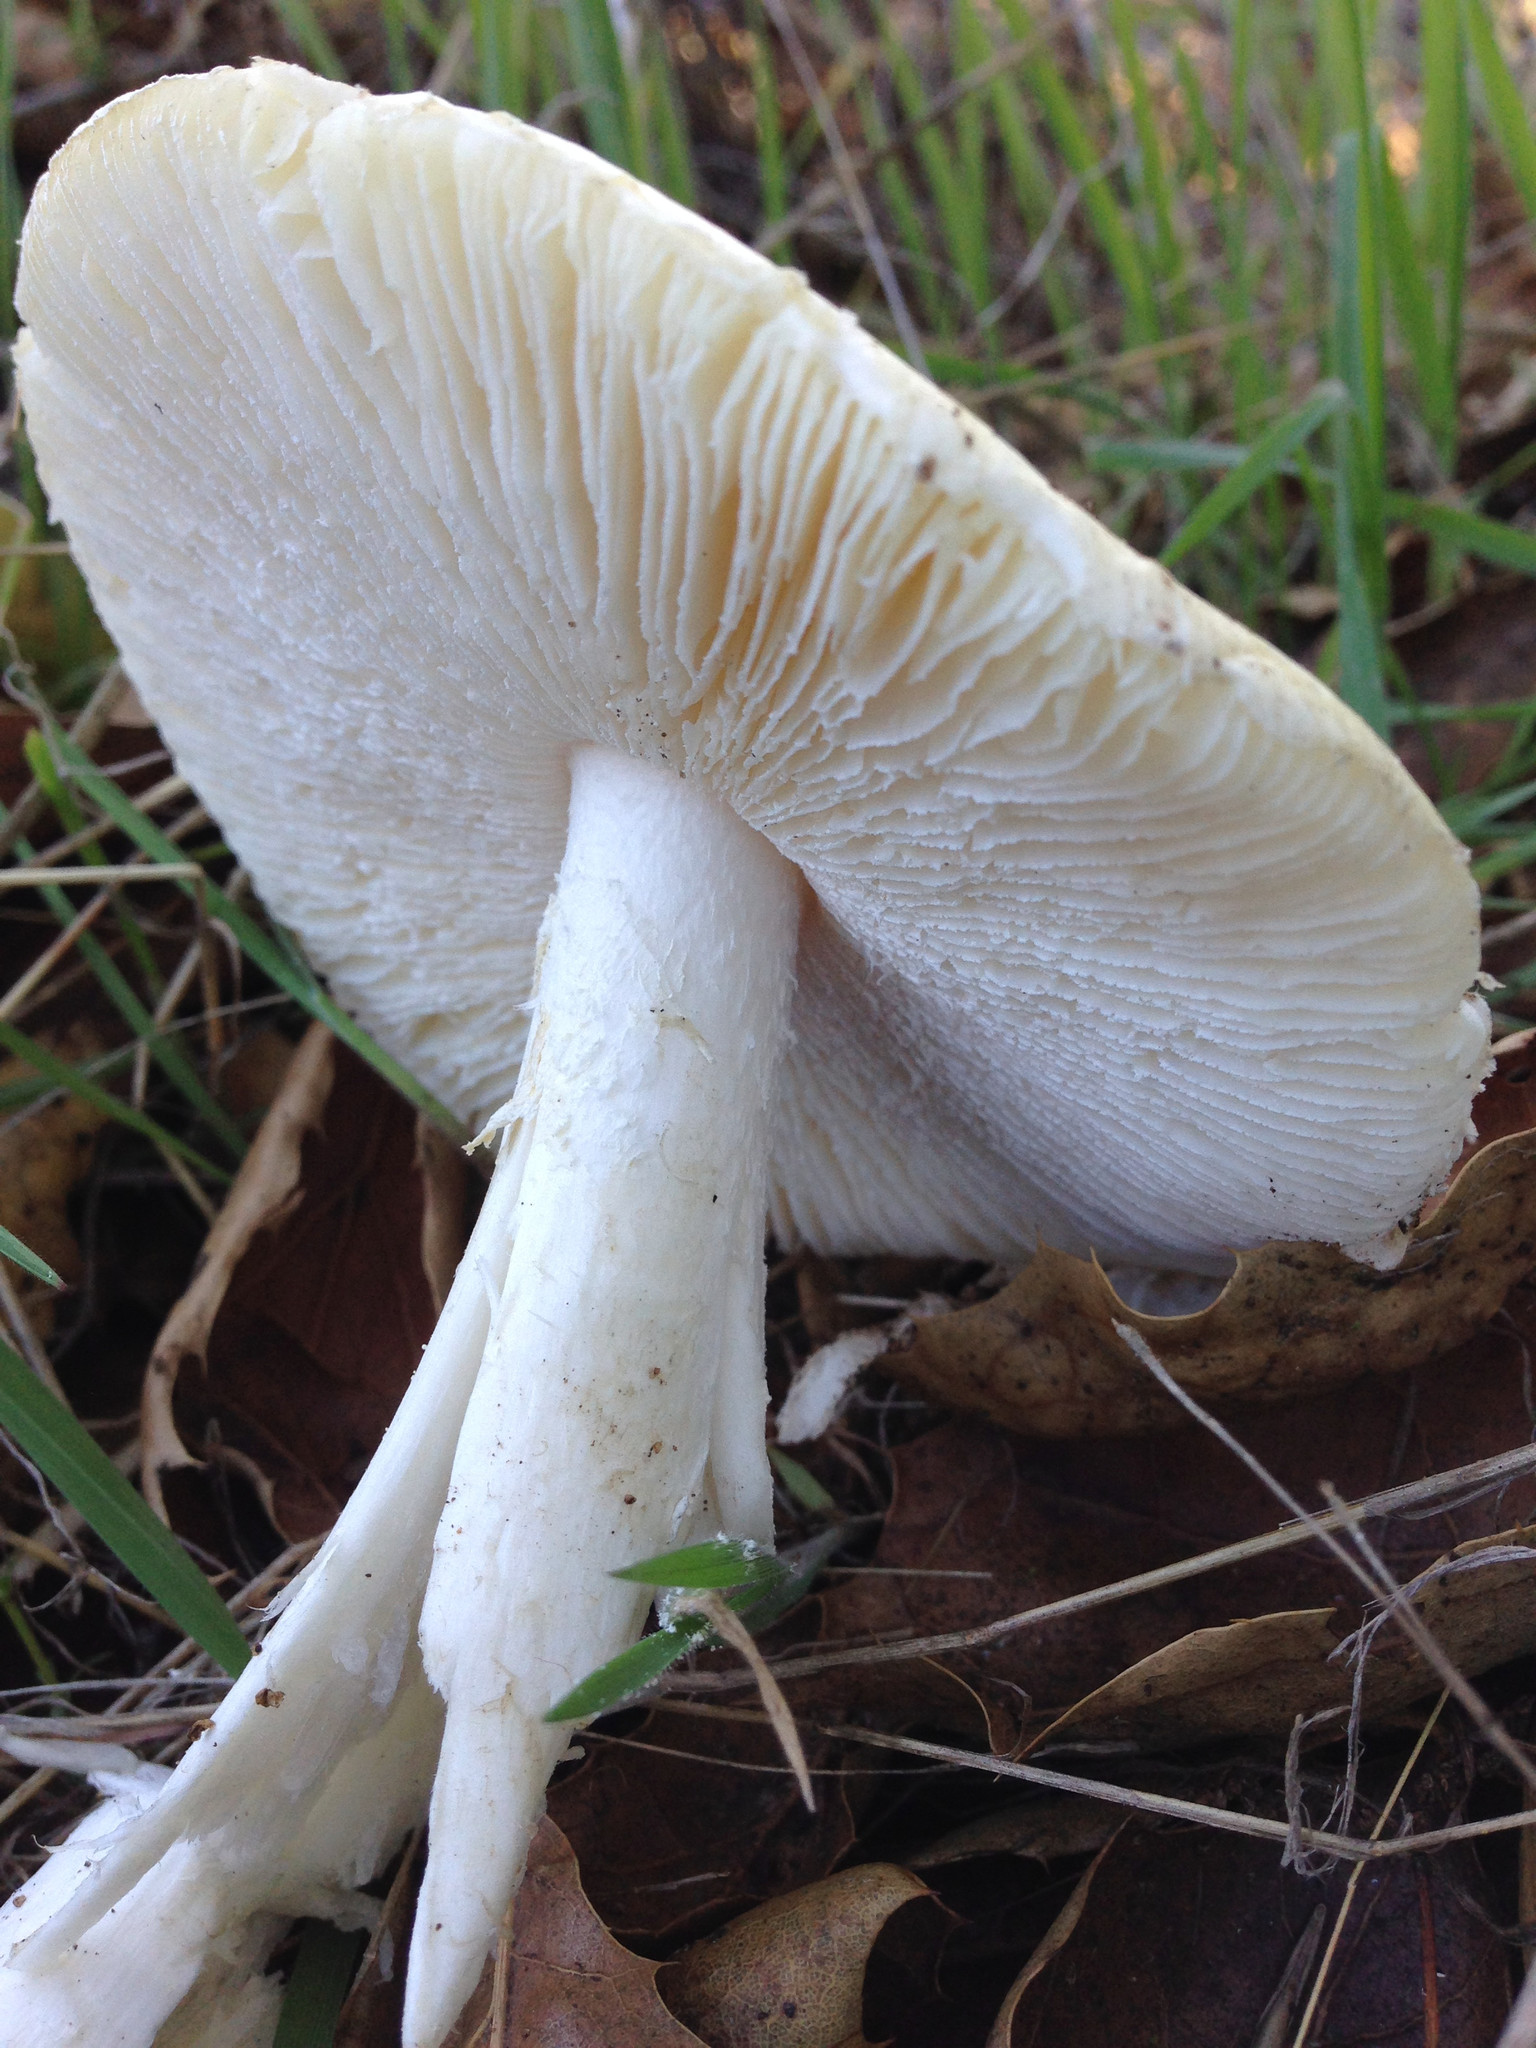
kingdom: Fungi
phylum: Basidiomycota
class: Agaricomycetes
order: Agaricales
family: Amanitaceae
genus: Amanita
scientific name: Amanita ocreata
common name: Western destroying angel
